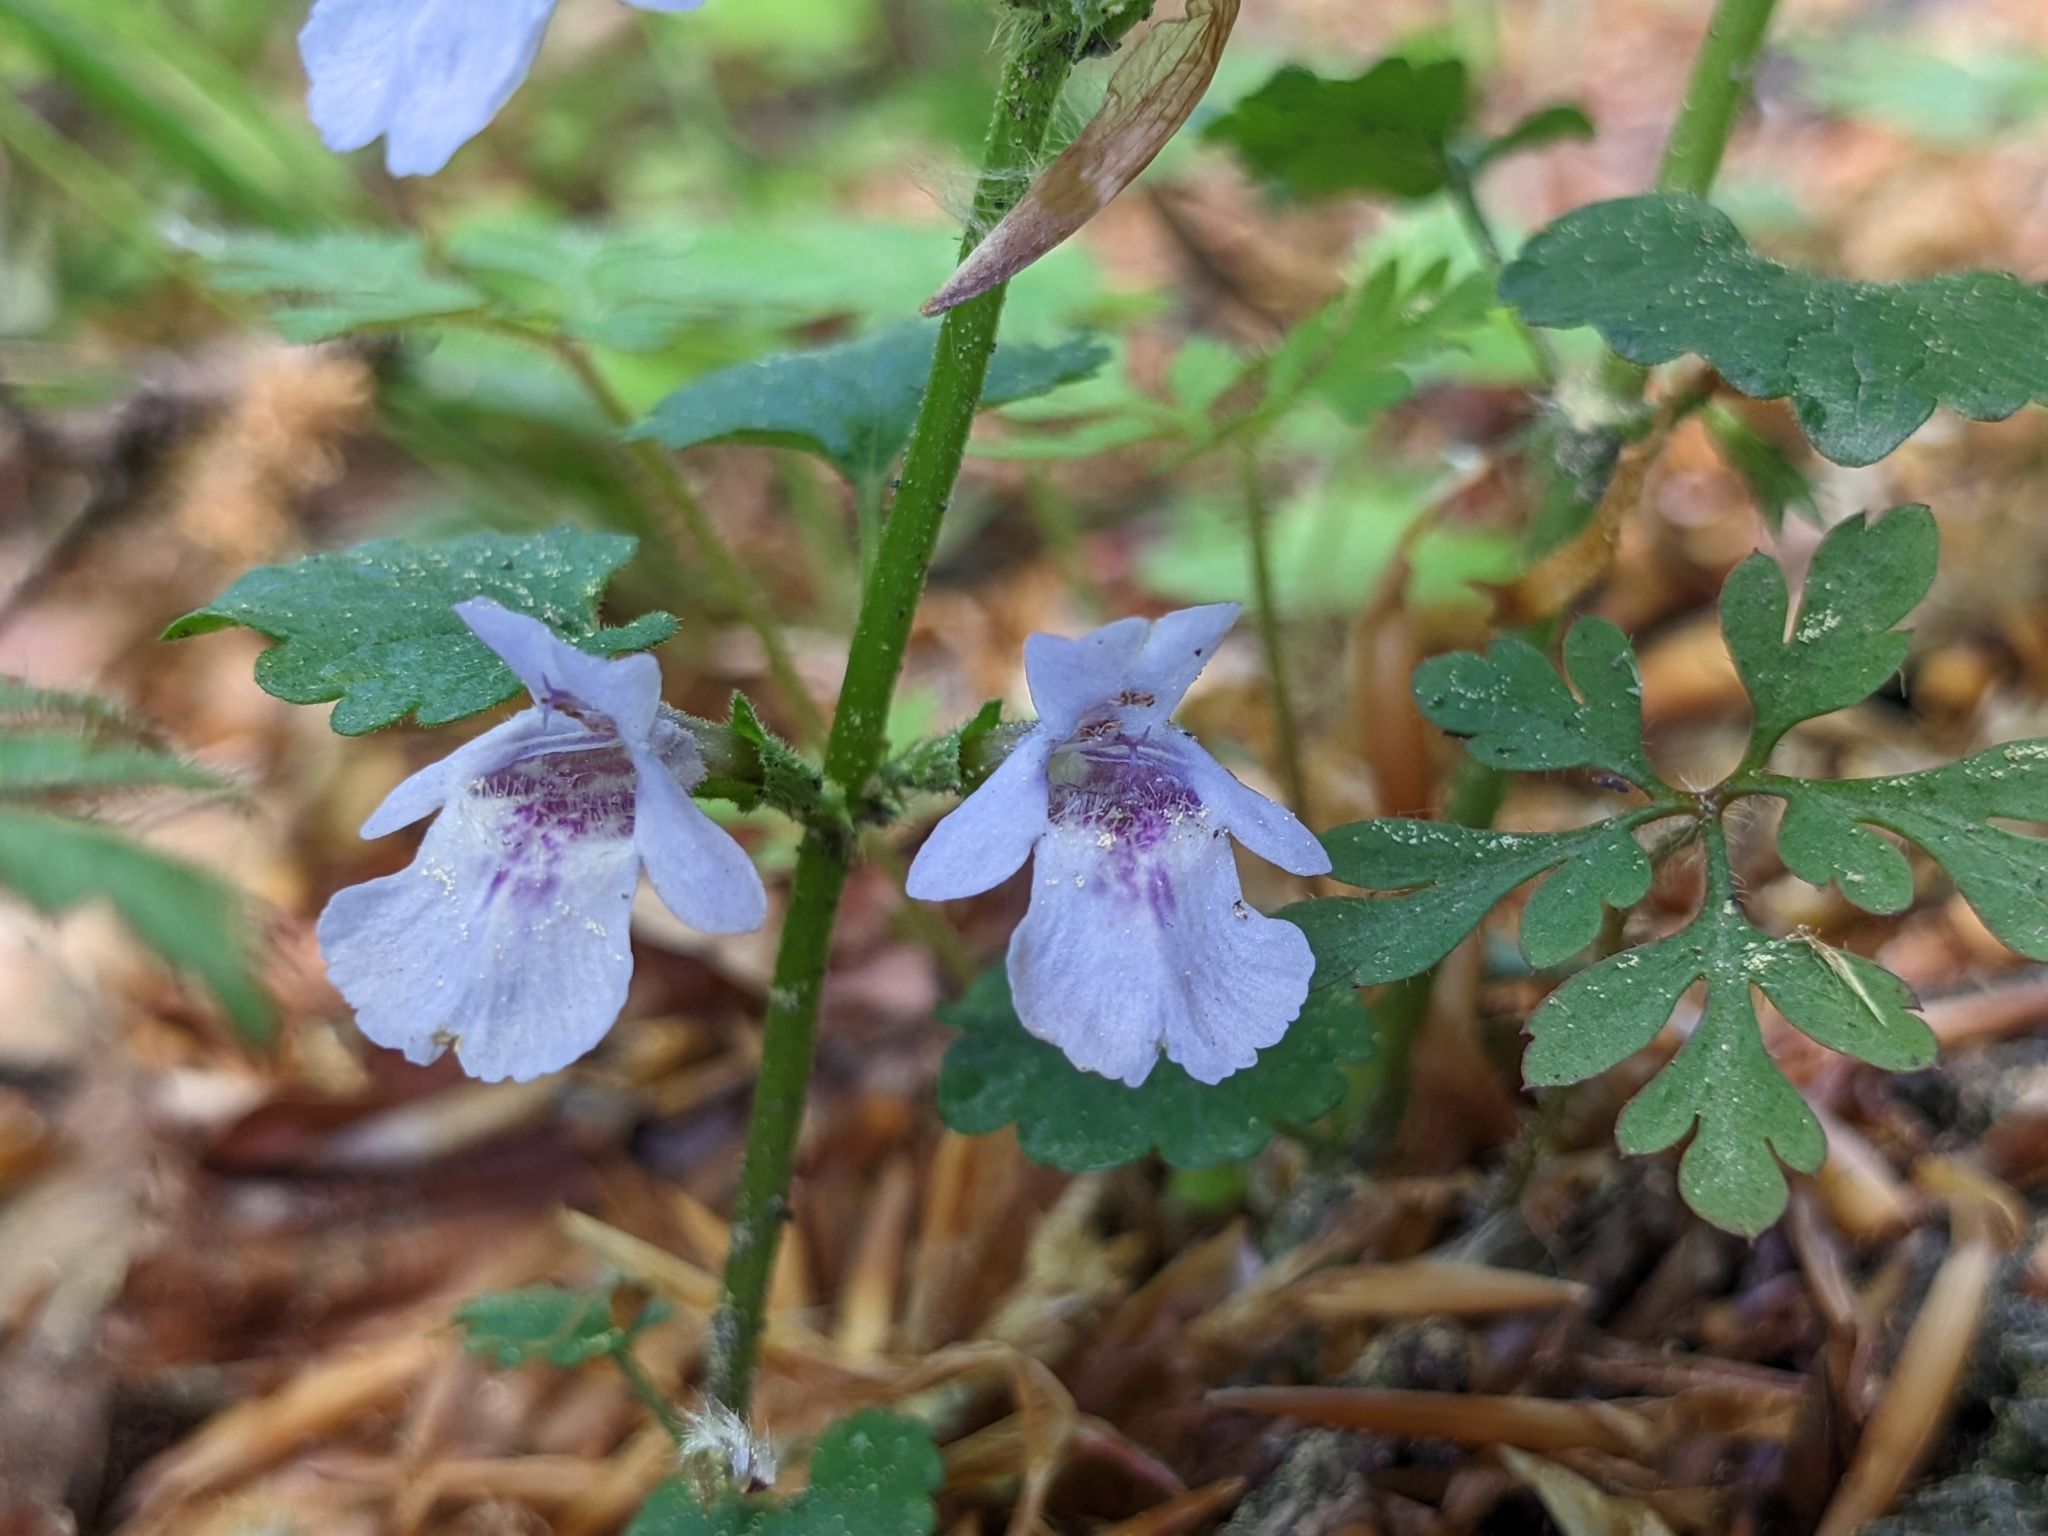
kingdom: Plantae
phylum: Tracheophyta
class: Magnoliopsida
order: Lamiales
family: Lamiaceae
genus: Glechoma
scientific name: Glechoma hederacea
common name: Ground ivy
